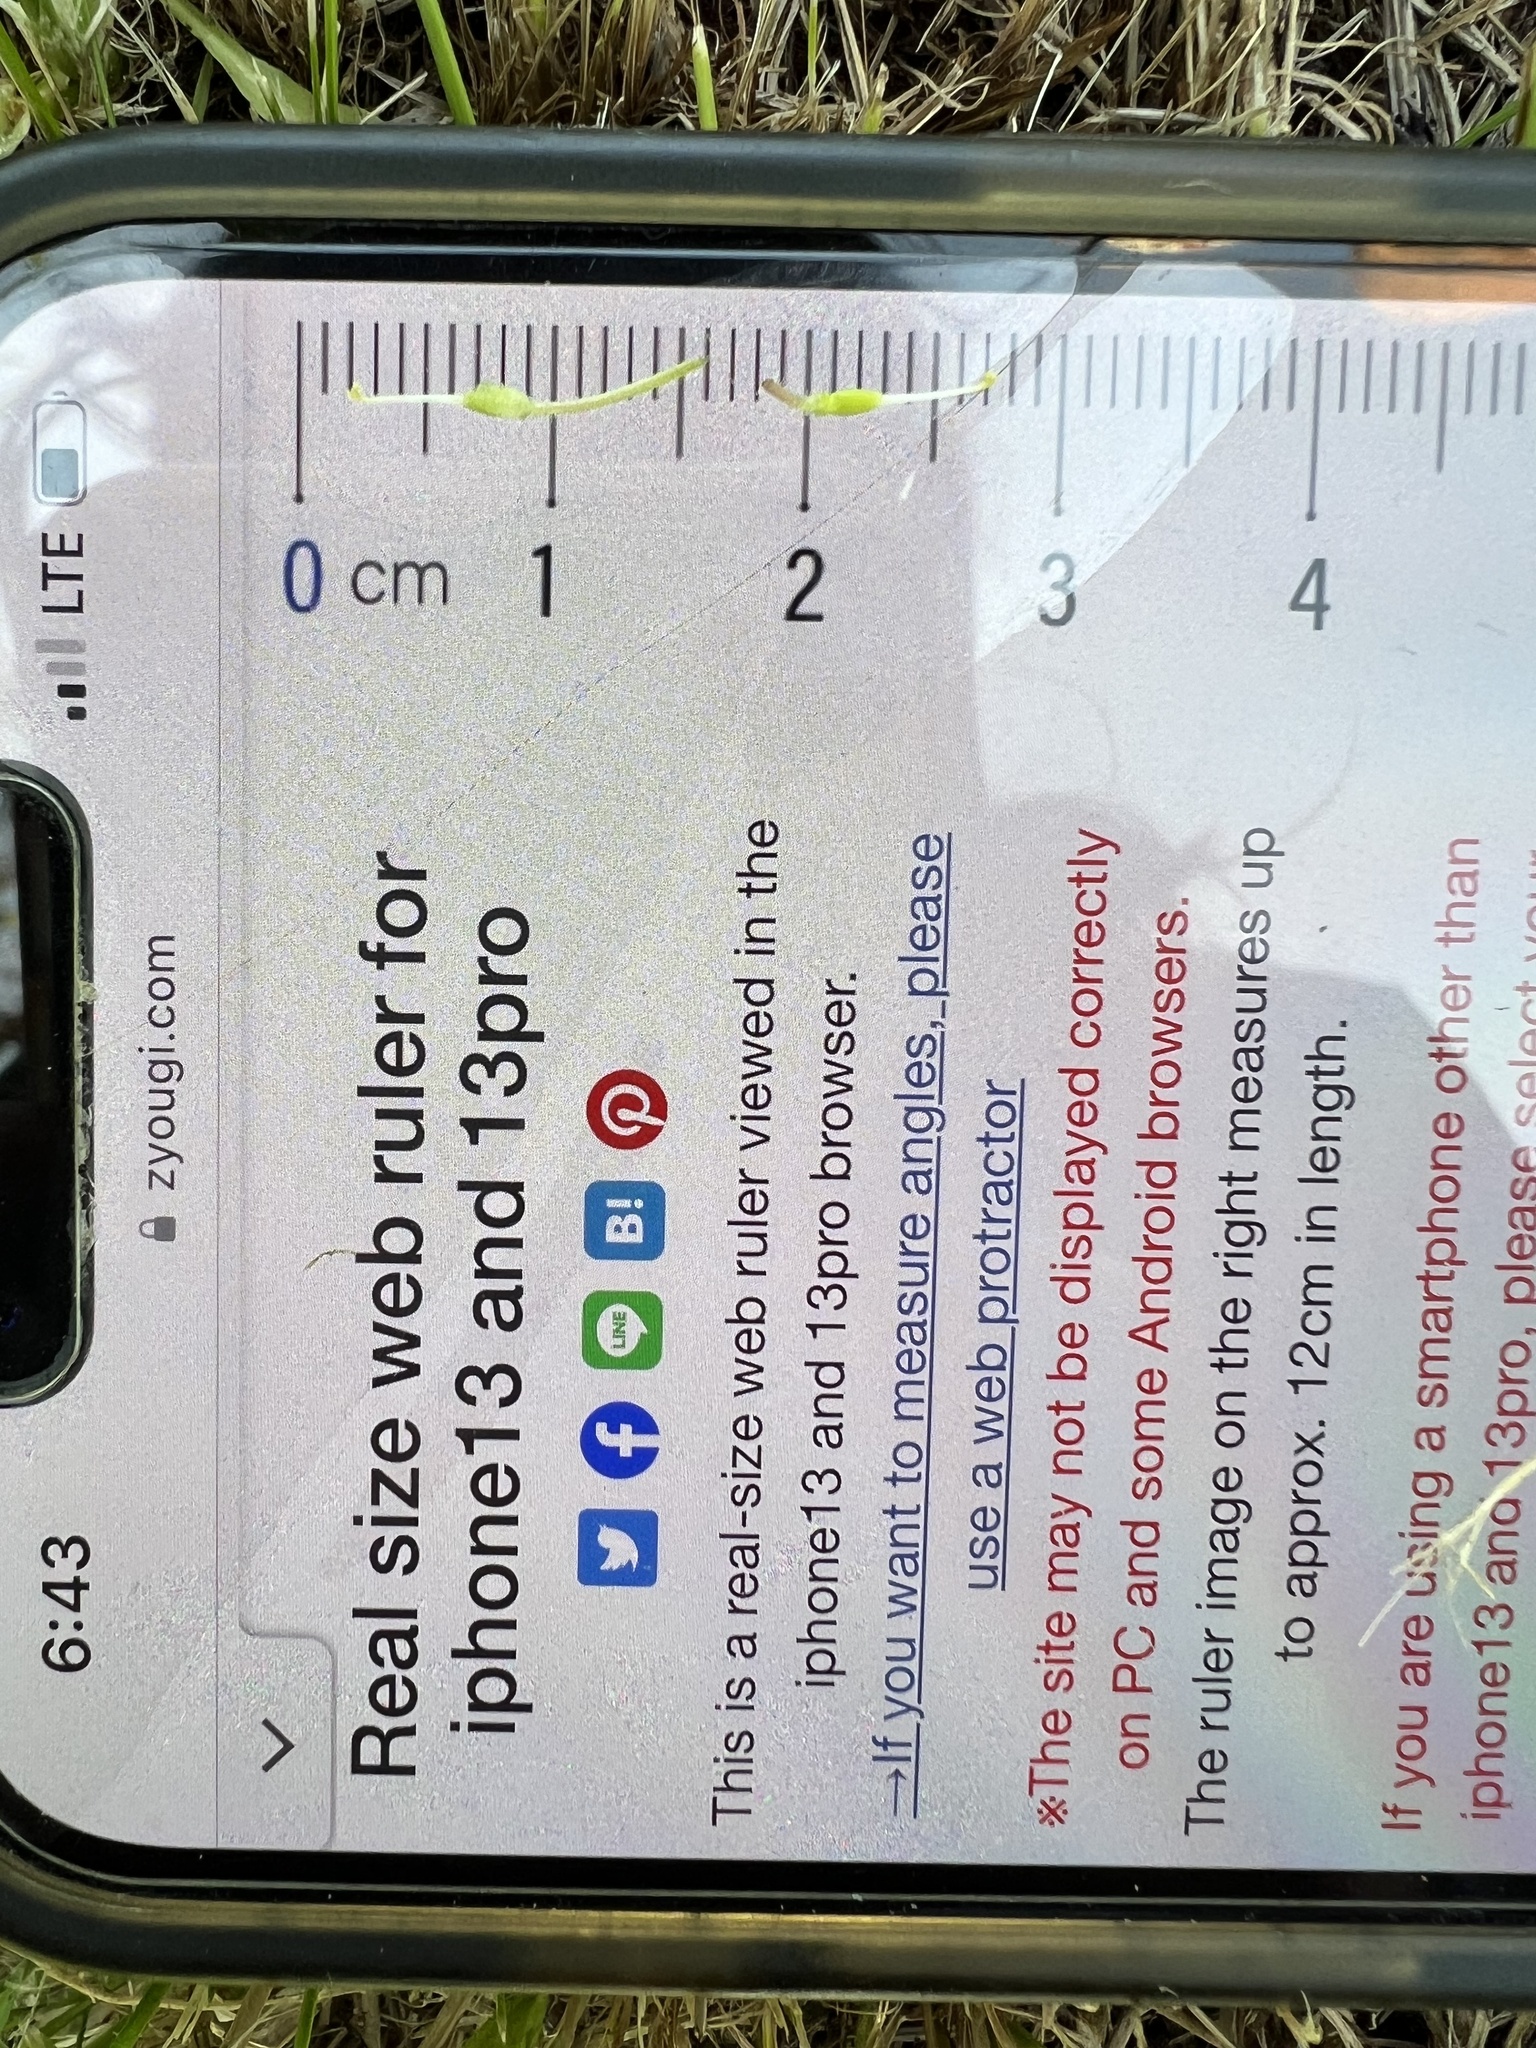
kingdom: Plantae
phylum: Tracheophyta
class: Magnoliopsida
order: Lamiales
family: Phrymaceae
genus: Erythranthe
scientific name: Erythranthe geyeri
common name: Geyer's monkeyflower
